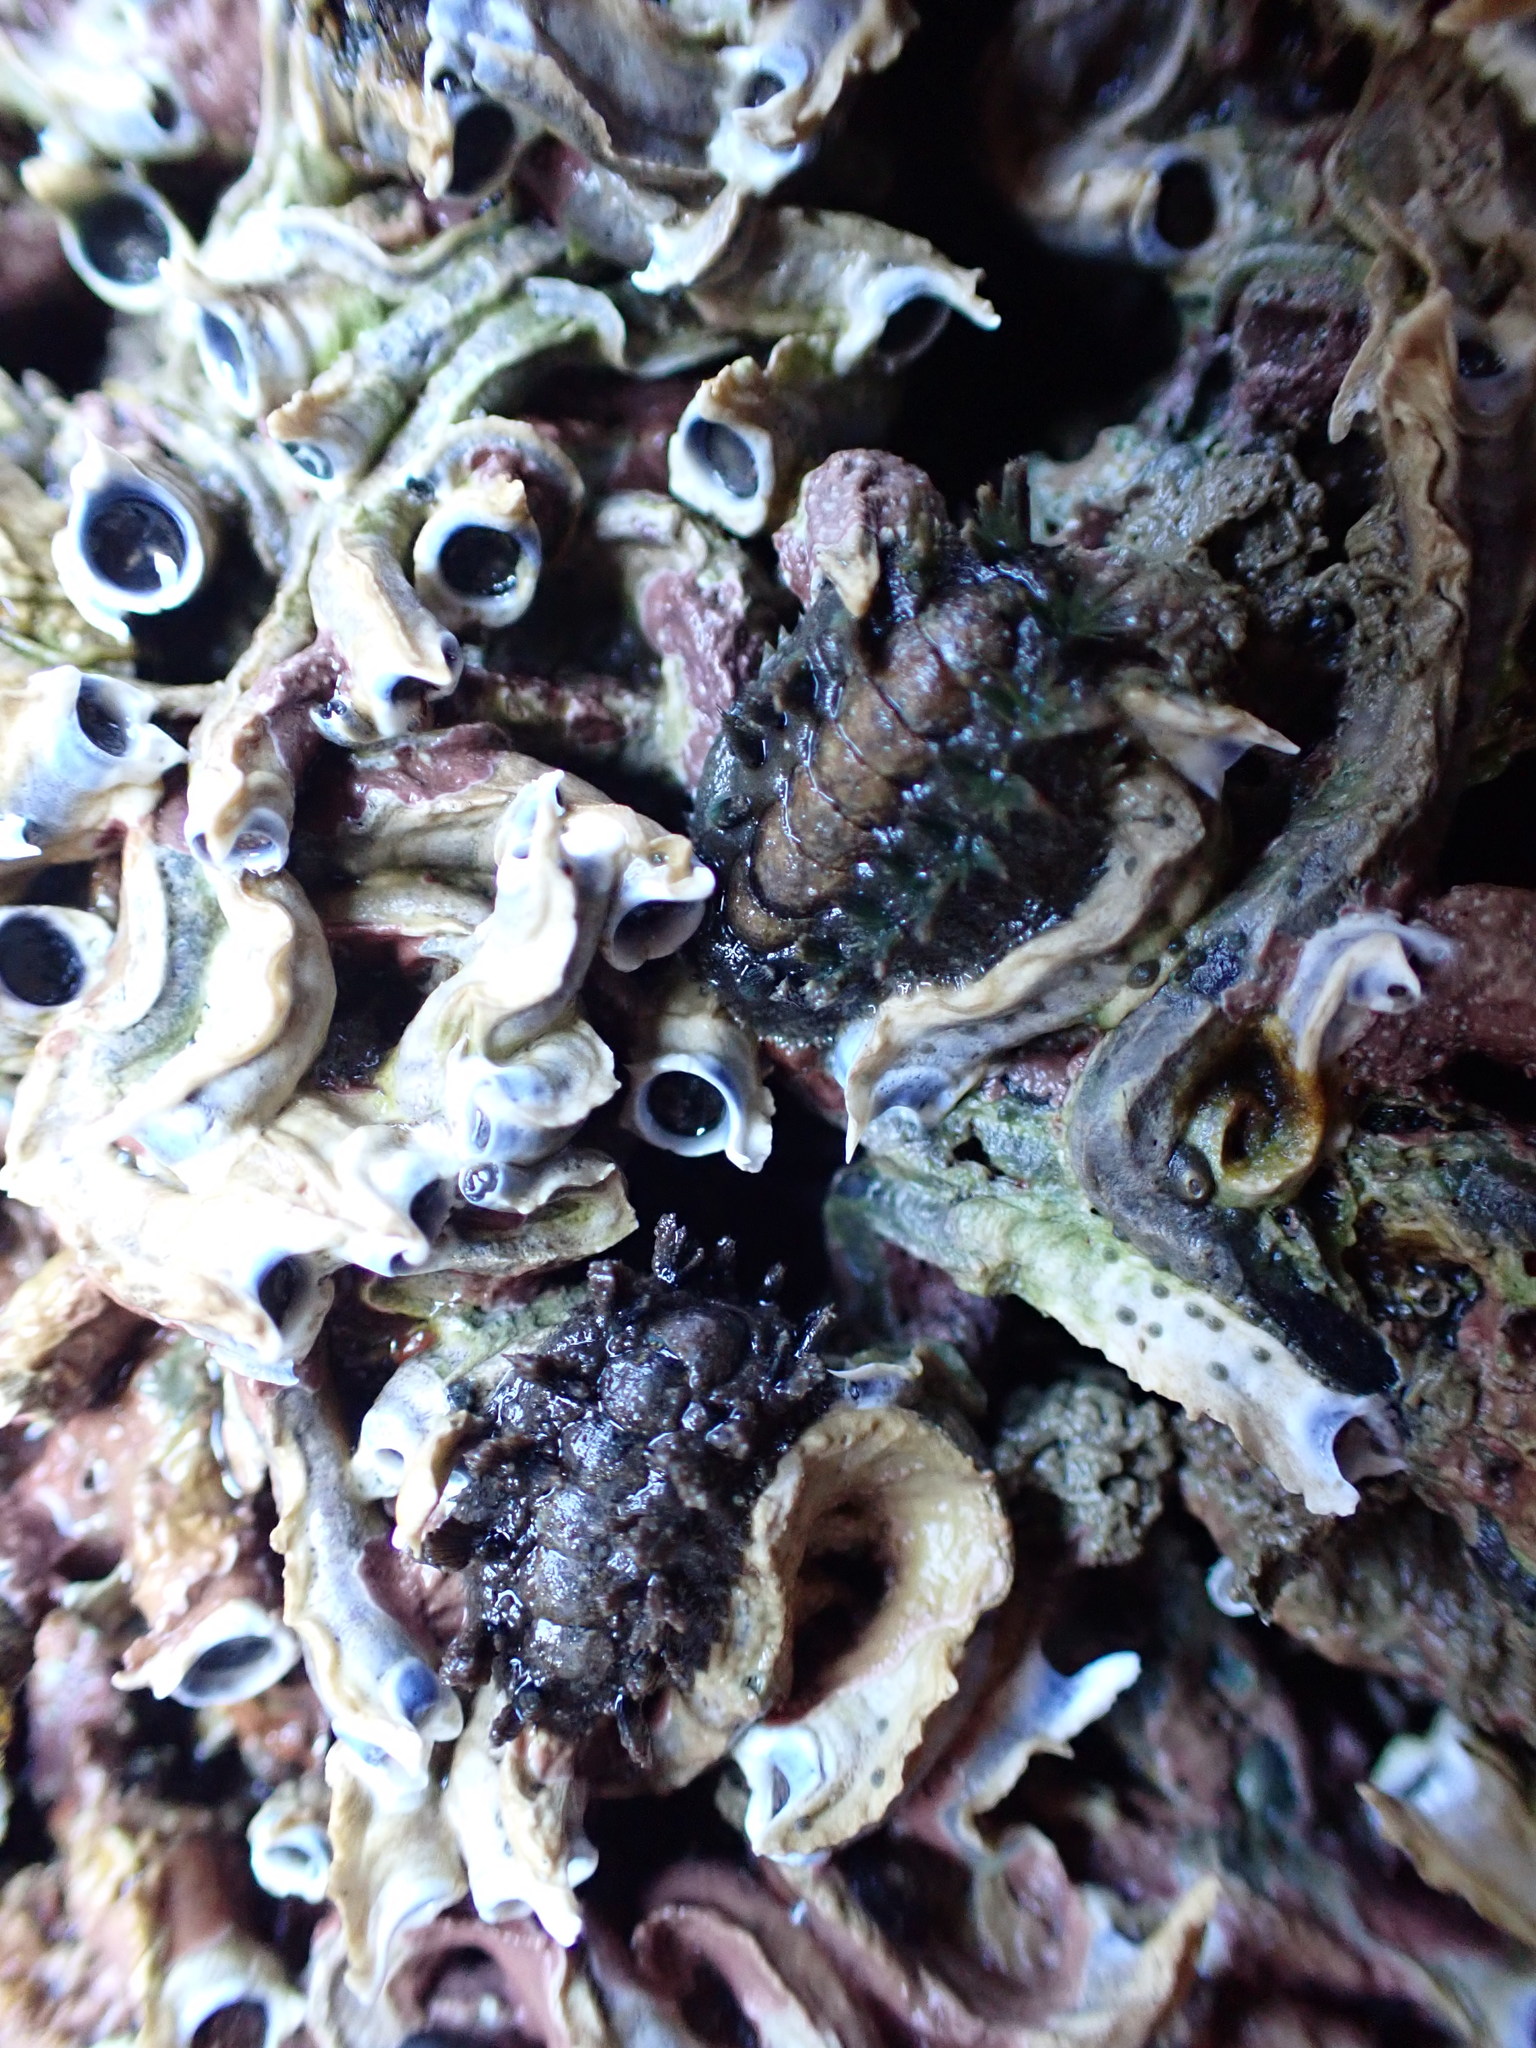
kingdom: Animalia
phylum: Mollusca
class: Polyplacophora
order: Chitonida
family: Acanthochitonidae
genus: Acanthochitona
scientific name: Acanthochitona zelandica
